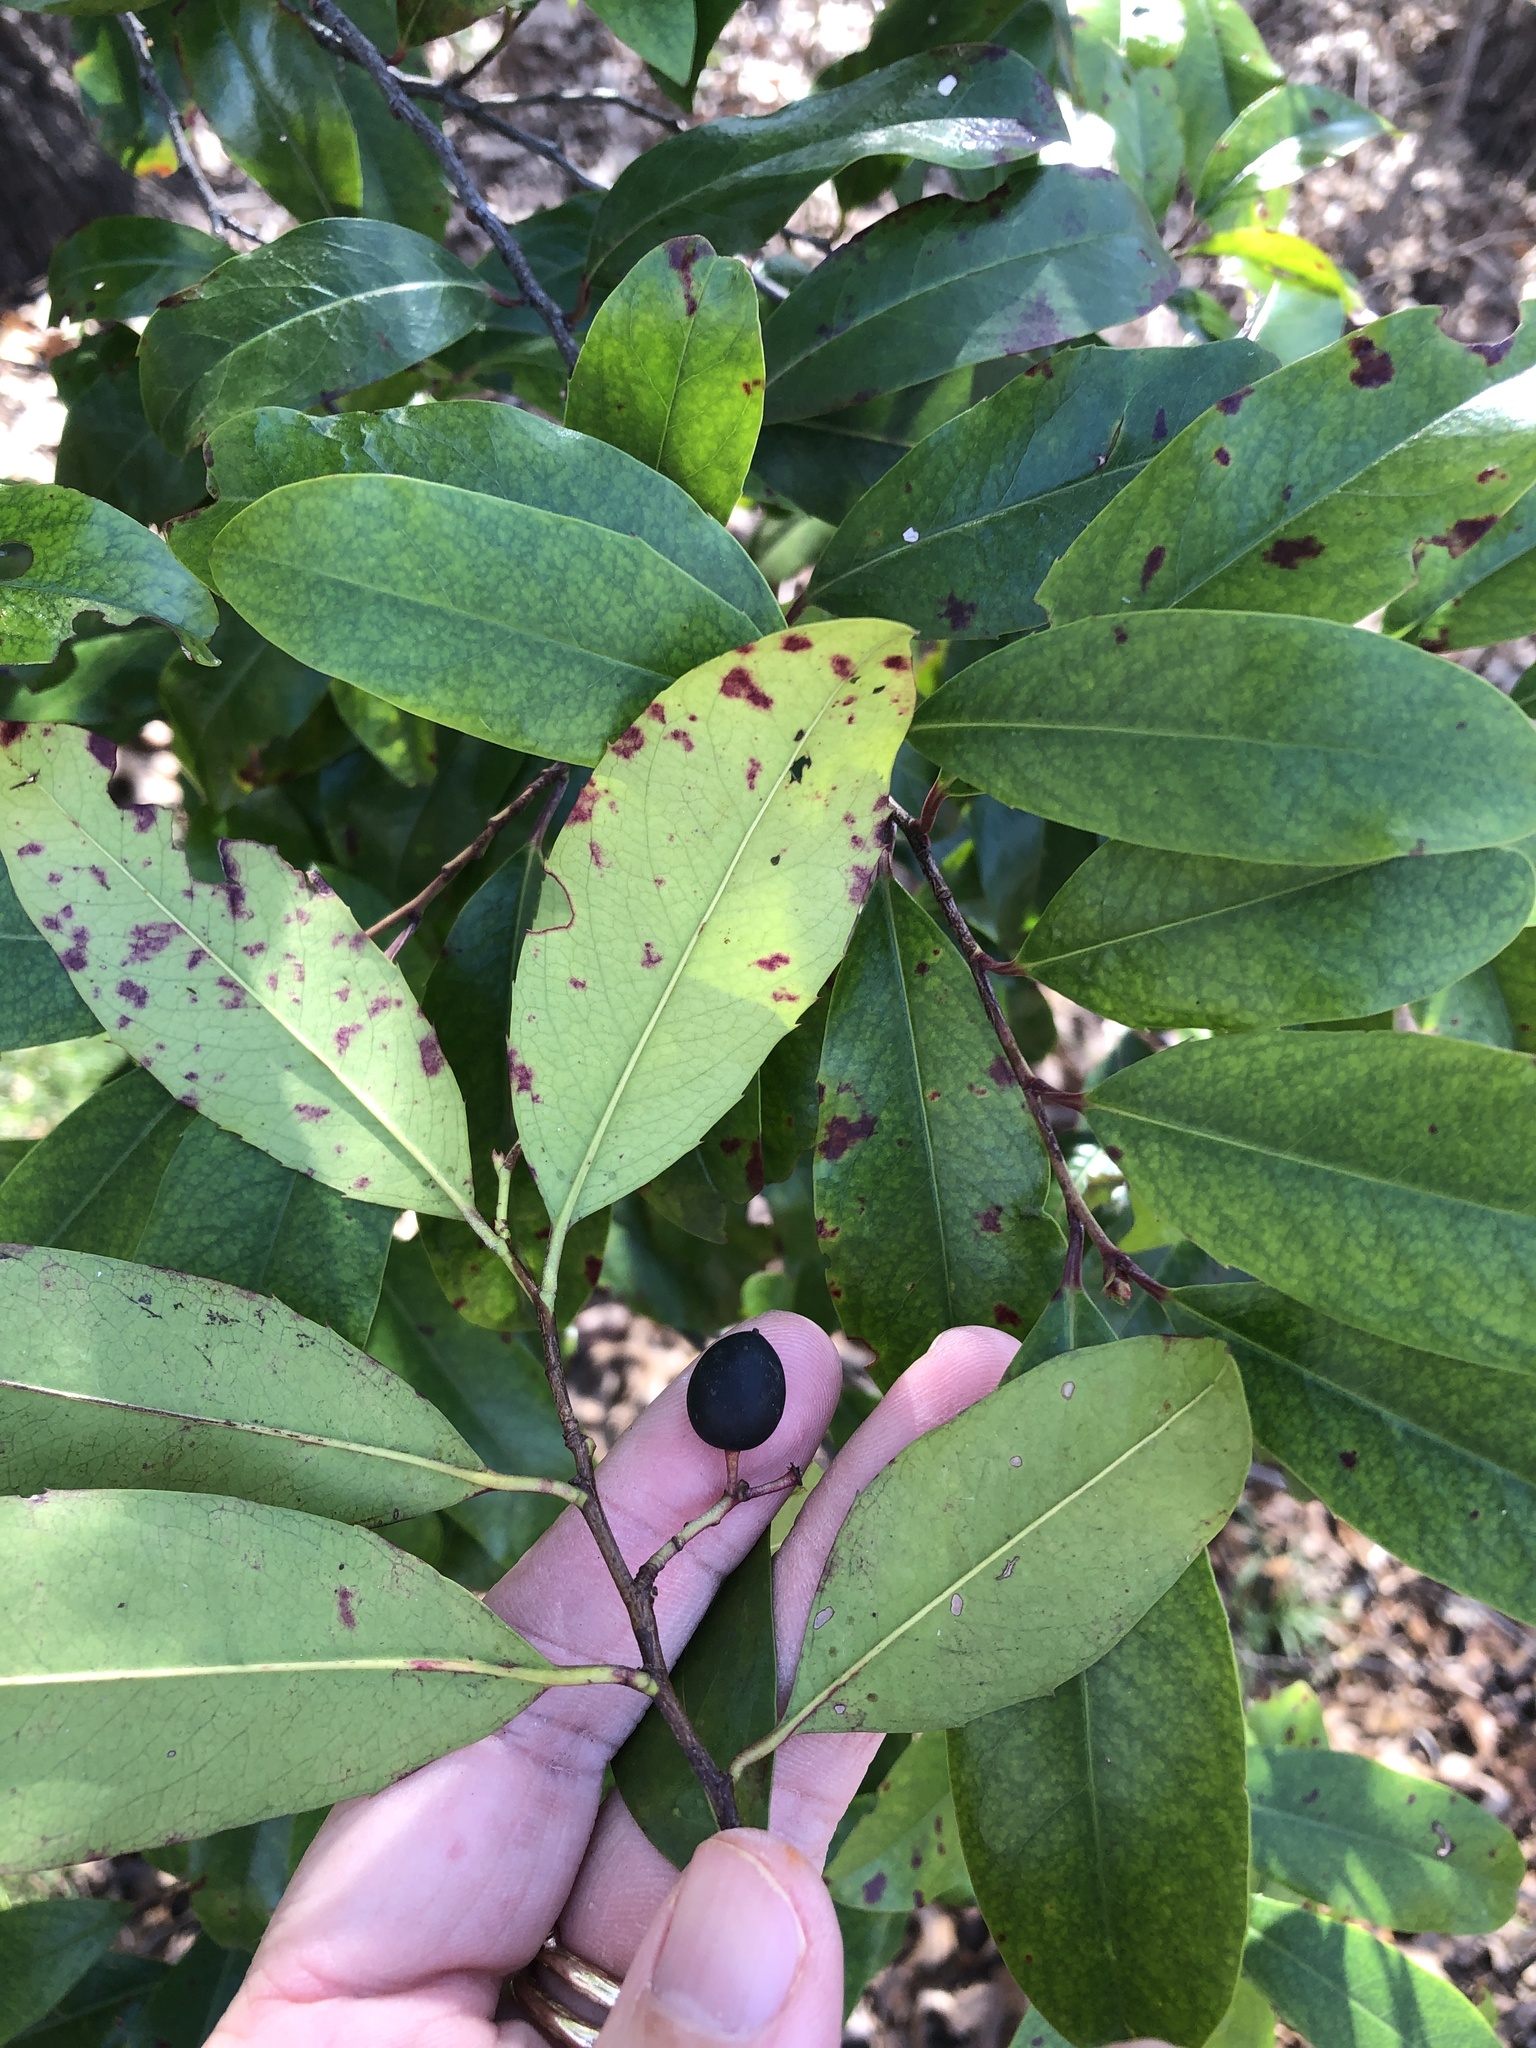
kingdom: Plantae
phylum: Tracheophyta
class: Magnoliopsida
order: Rosales
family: Rosaceae
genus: Prunus
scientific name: Prunus caroliniana
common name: Carolina laurel cherry
